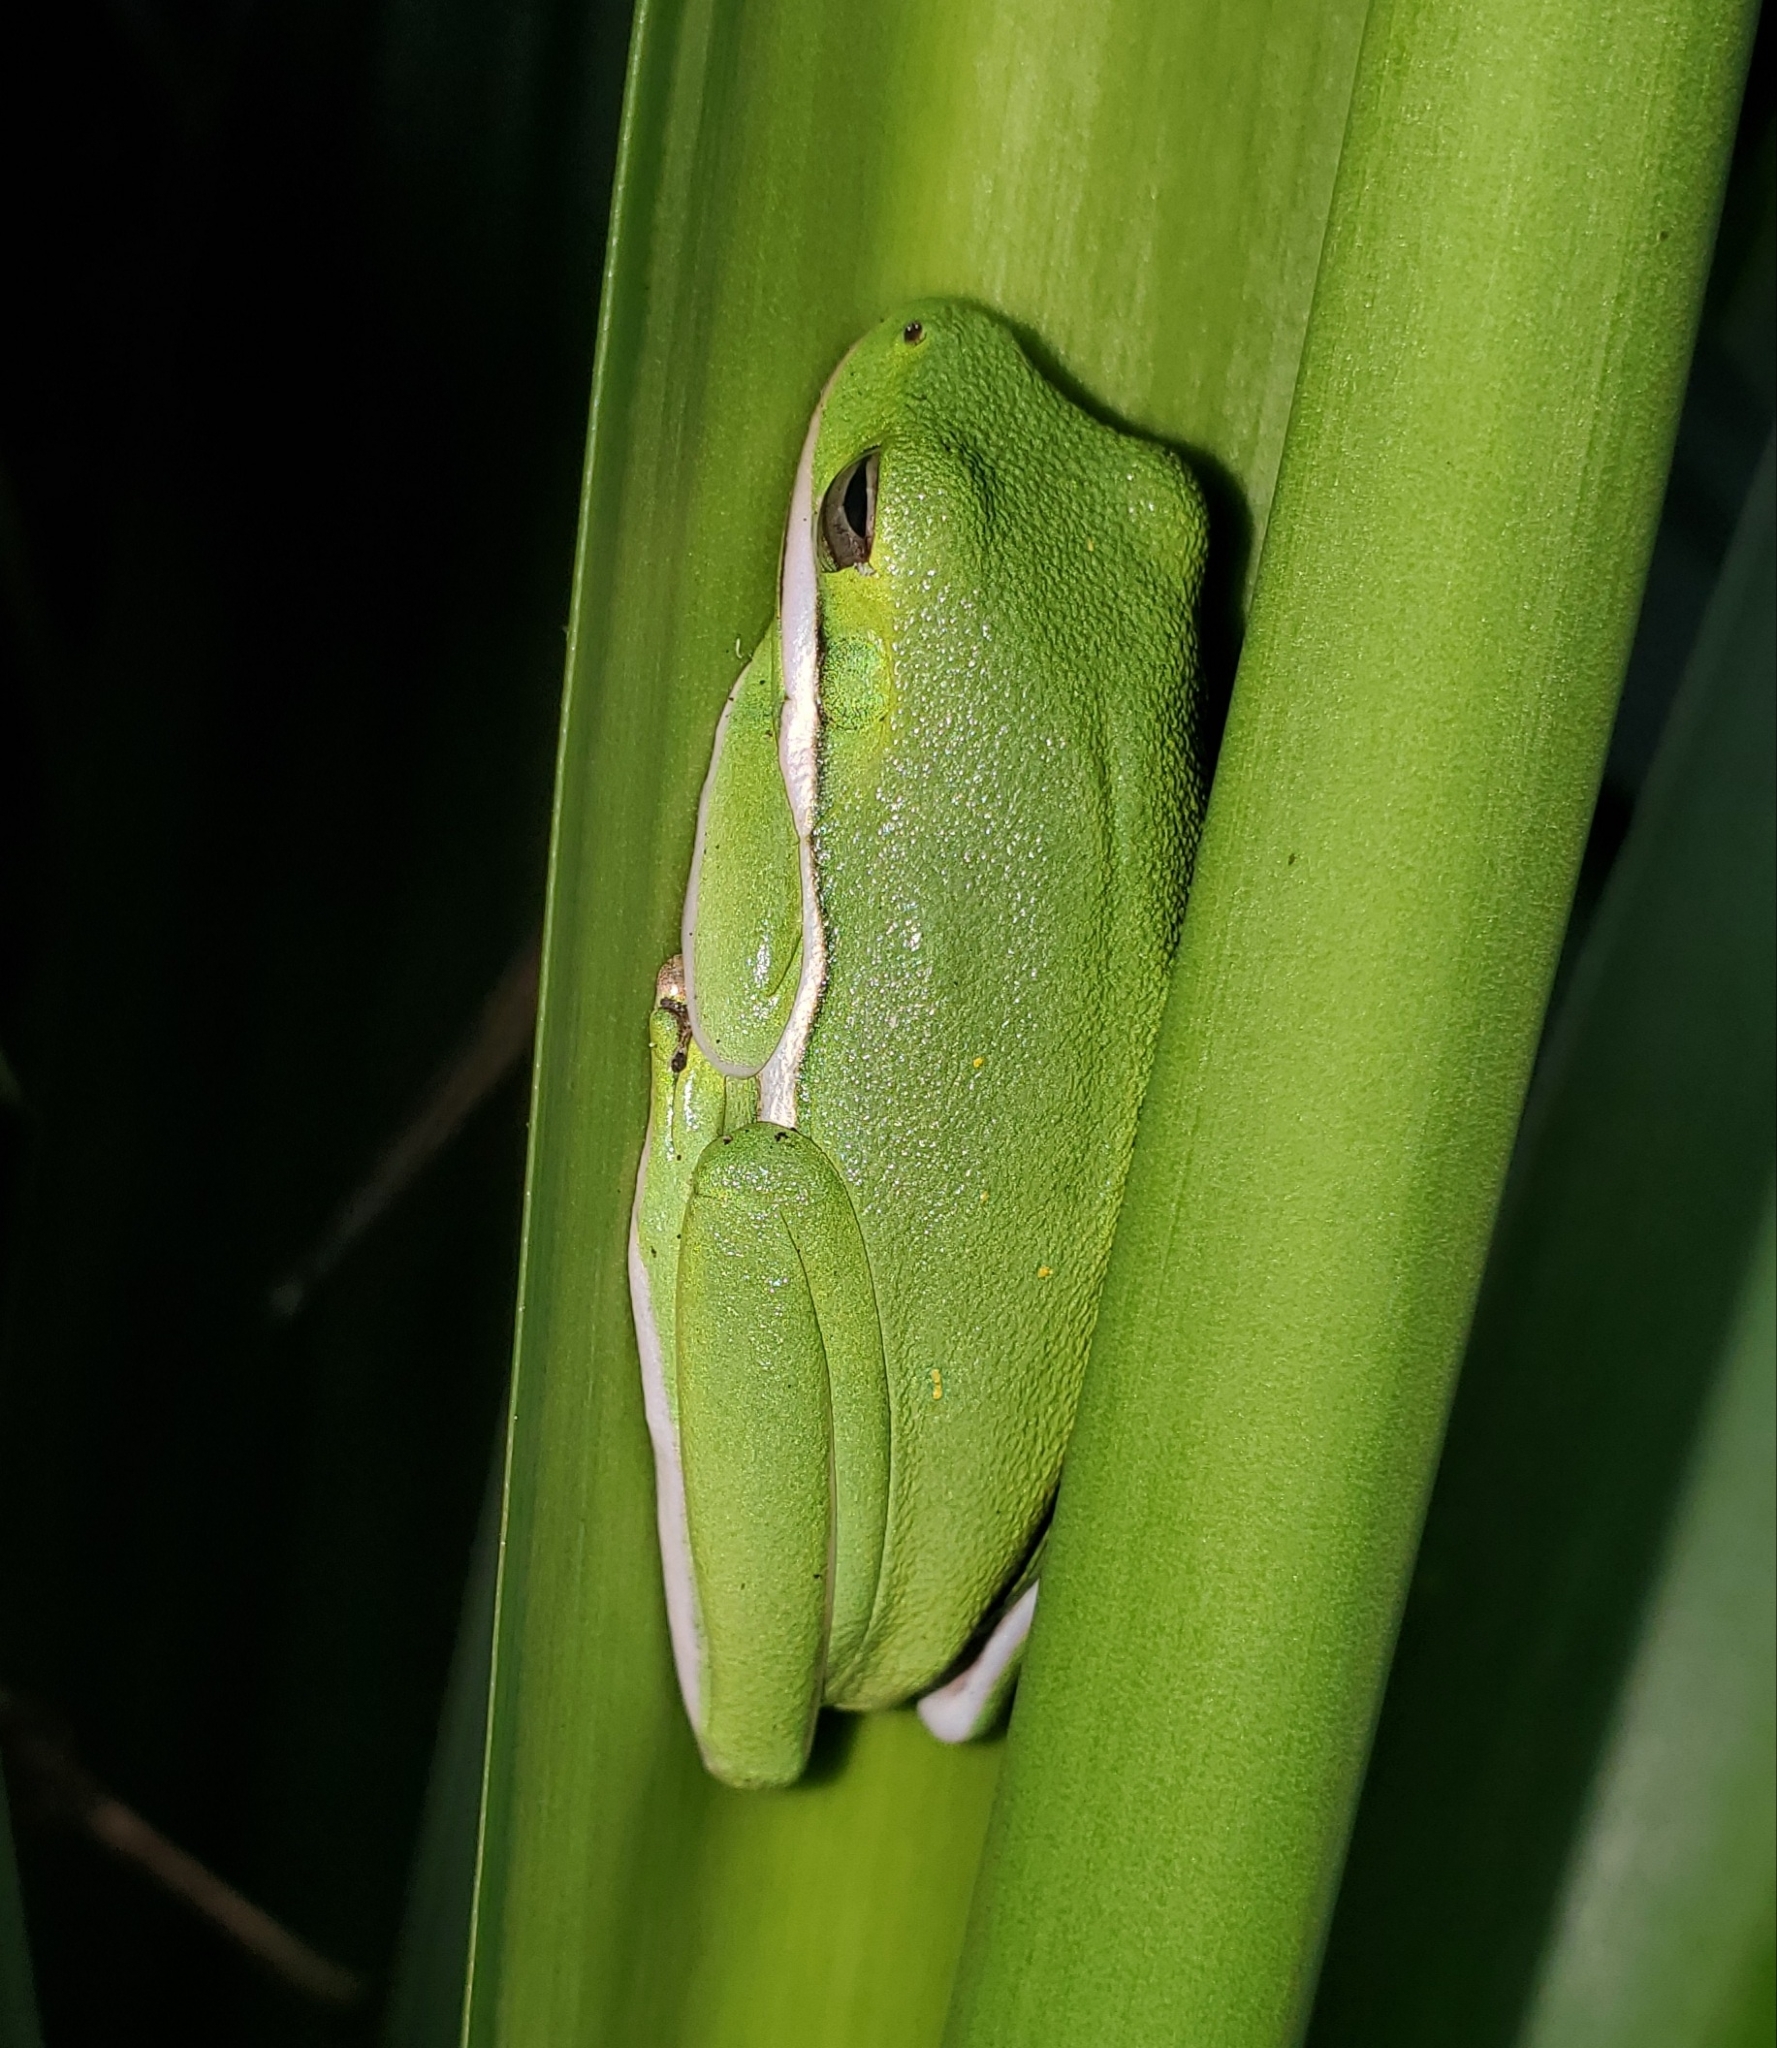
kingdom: Animalia
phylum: Chordata
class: Amphibia
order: Anura
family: Hylidae
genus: Dryophytes
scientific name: Dryophytes cinereus
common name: Green treefrog
